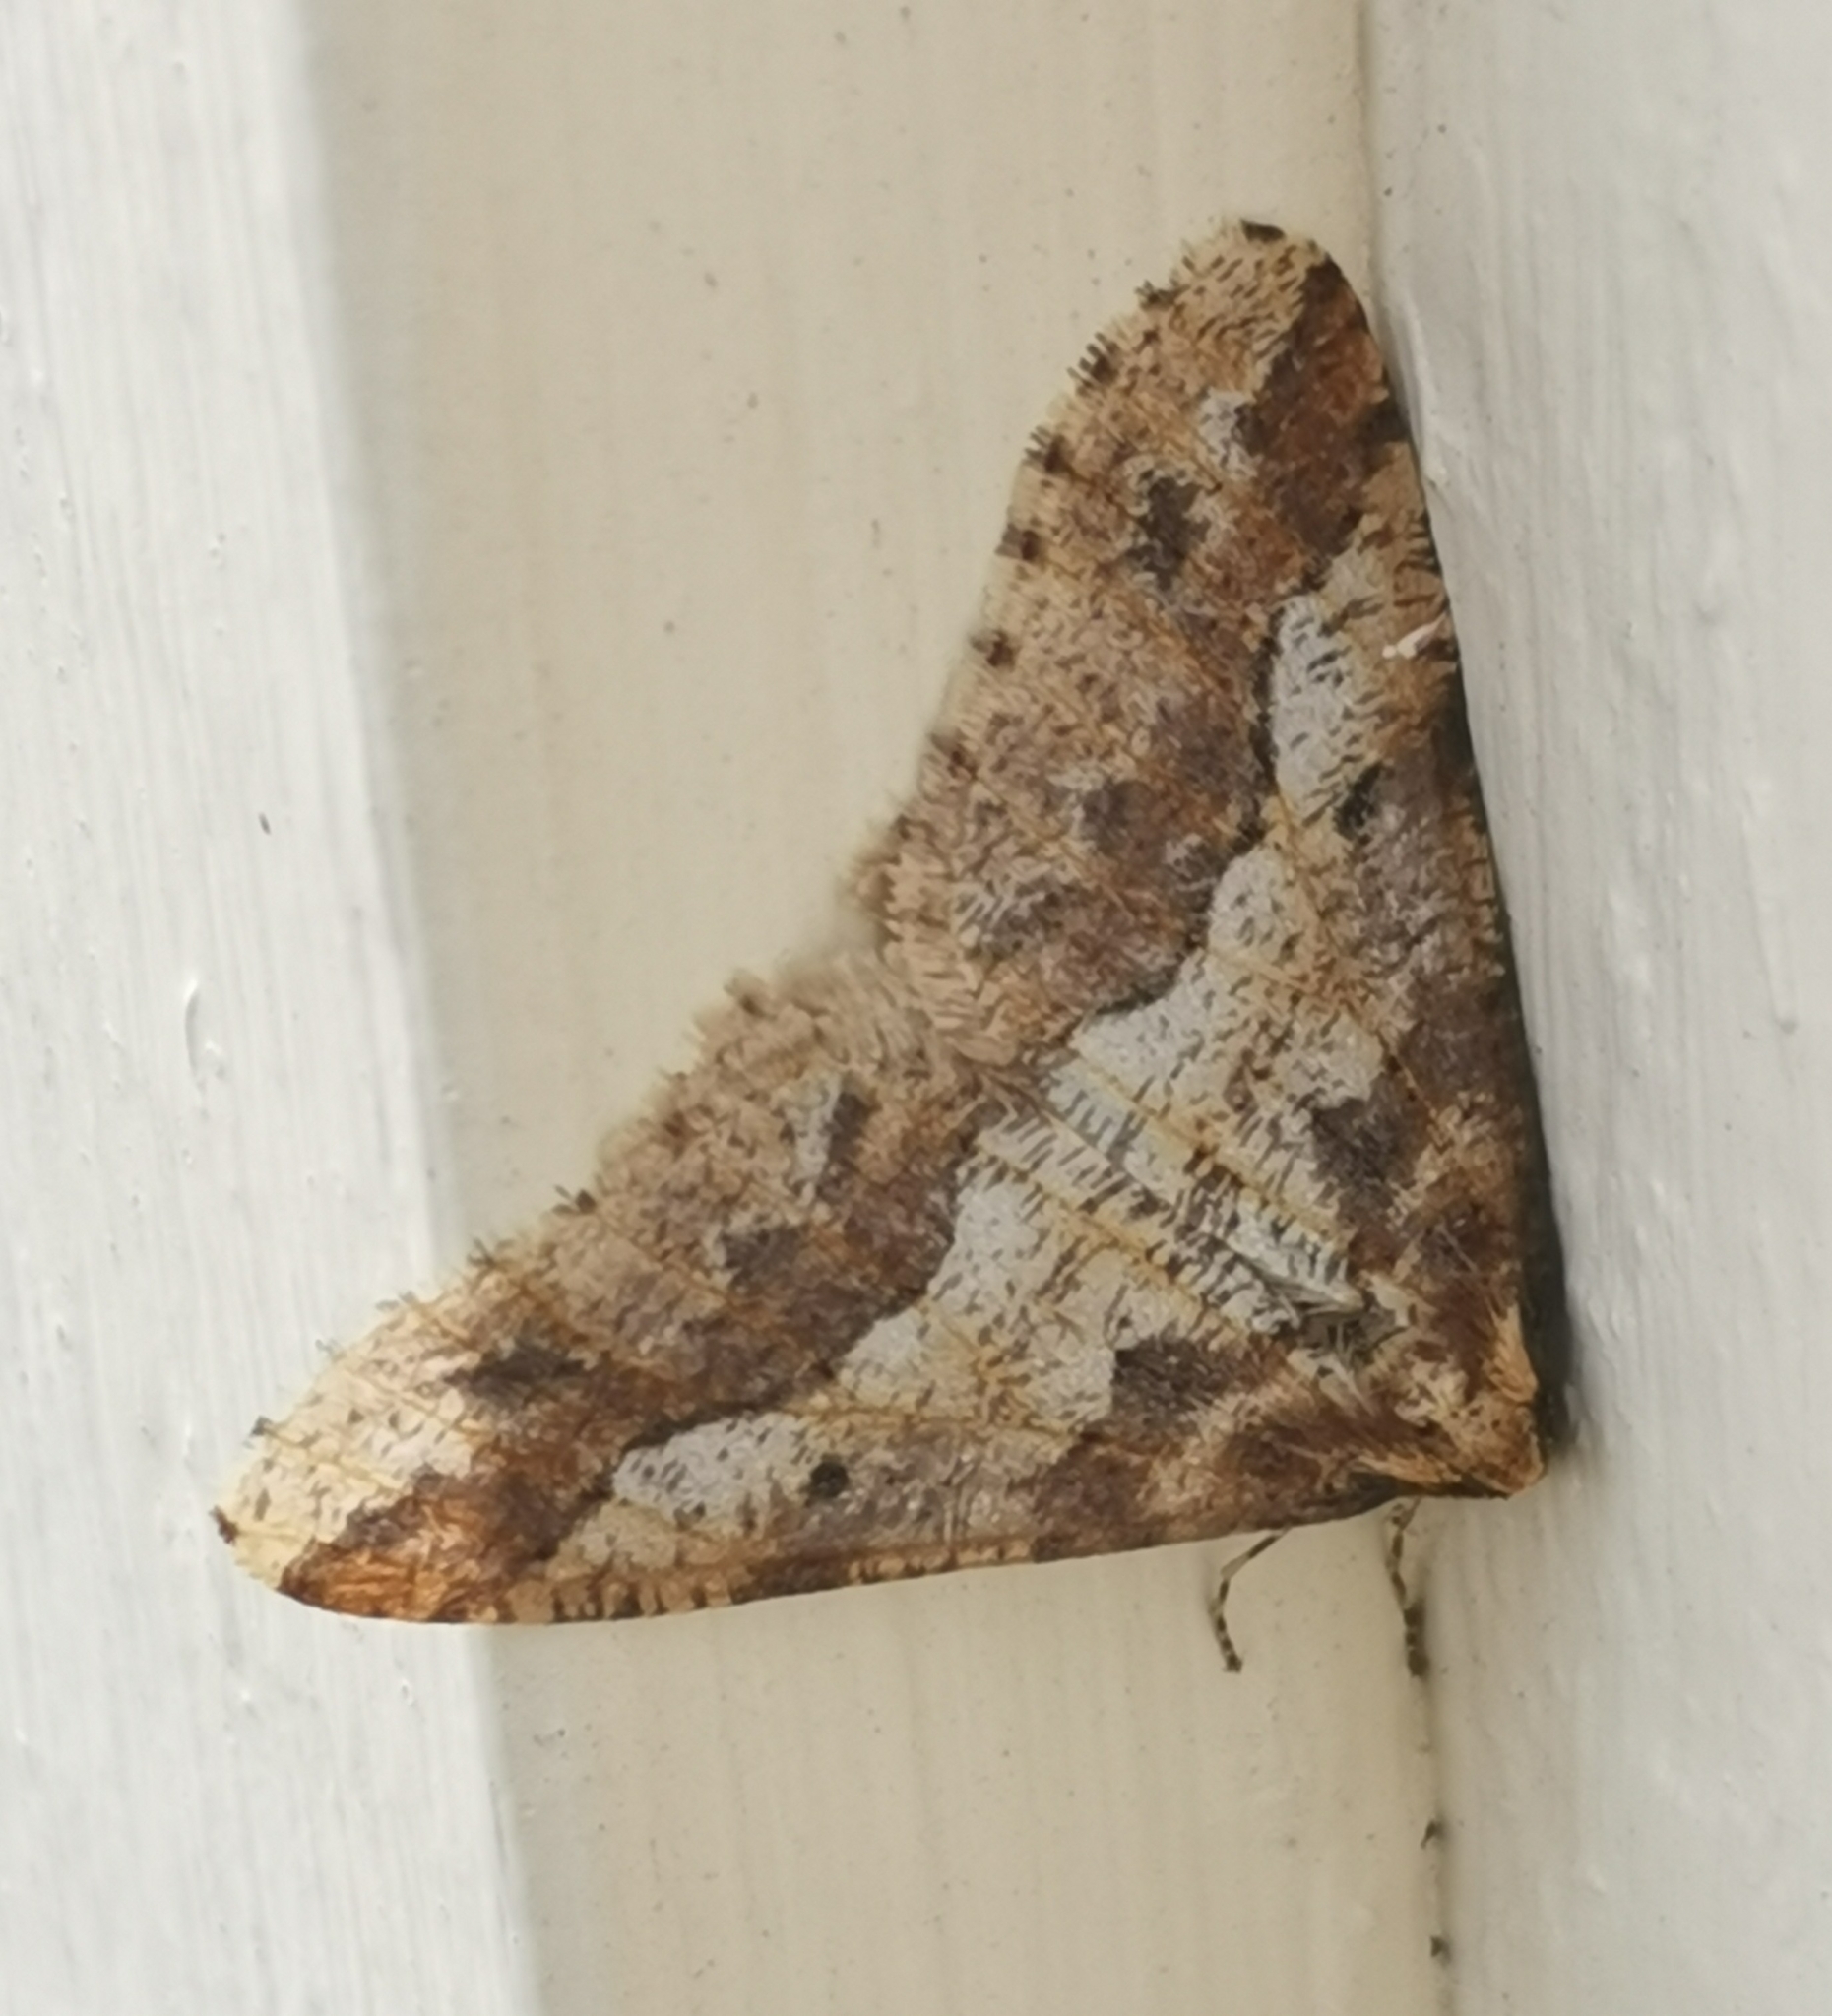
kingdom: Animalia
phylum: Arthropoda
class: Insecta
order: Lepidoptera
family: Geometridae
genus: Erannis
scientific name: Erannis defoliaria
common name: Mottled umber
